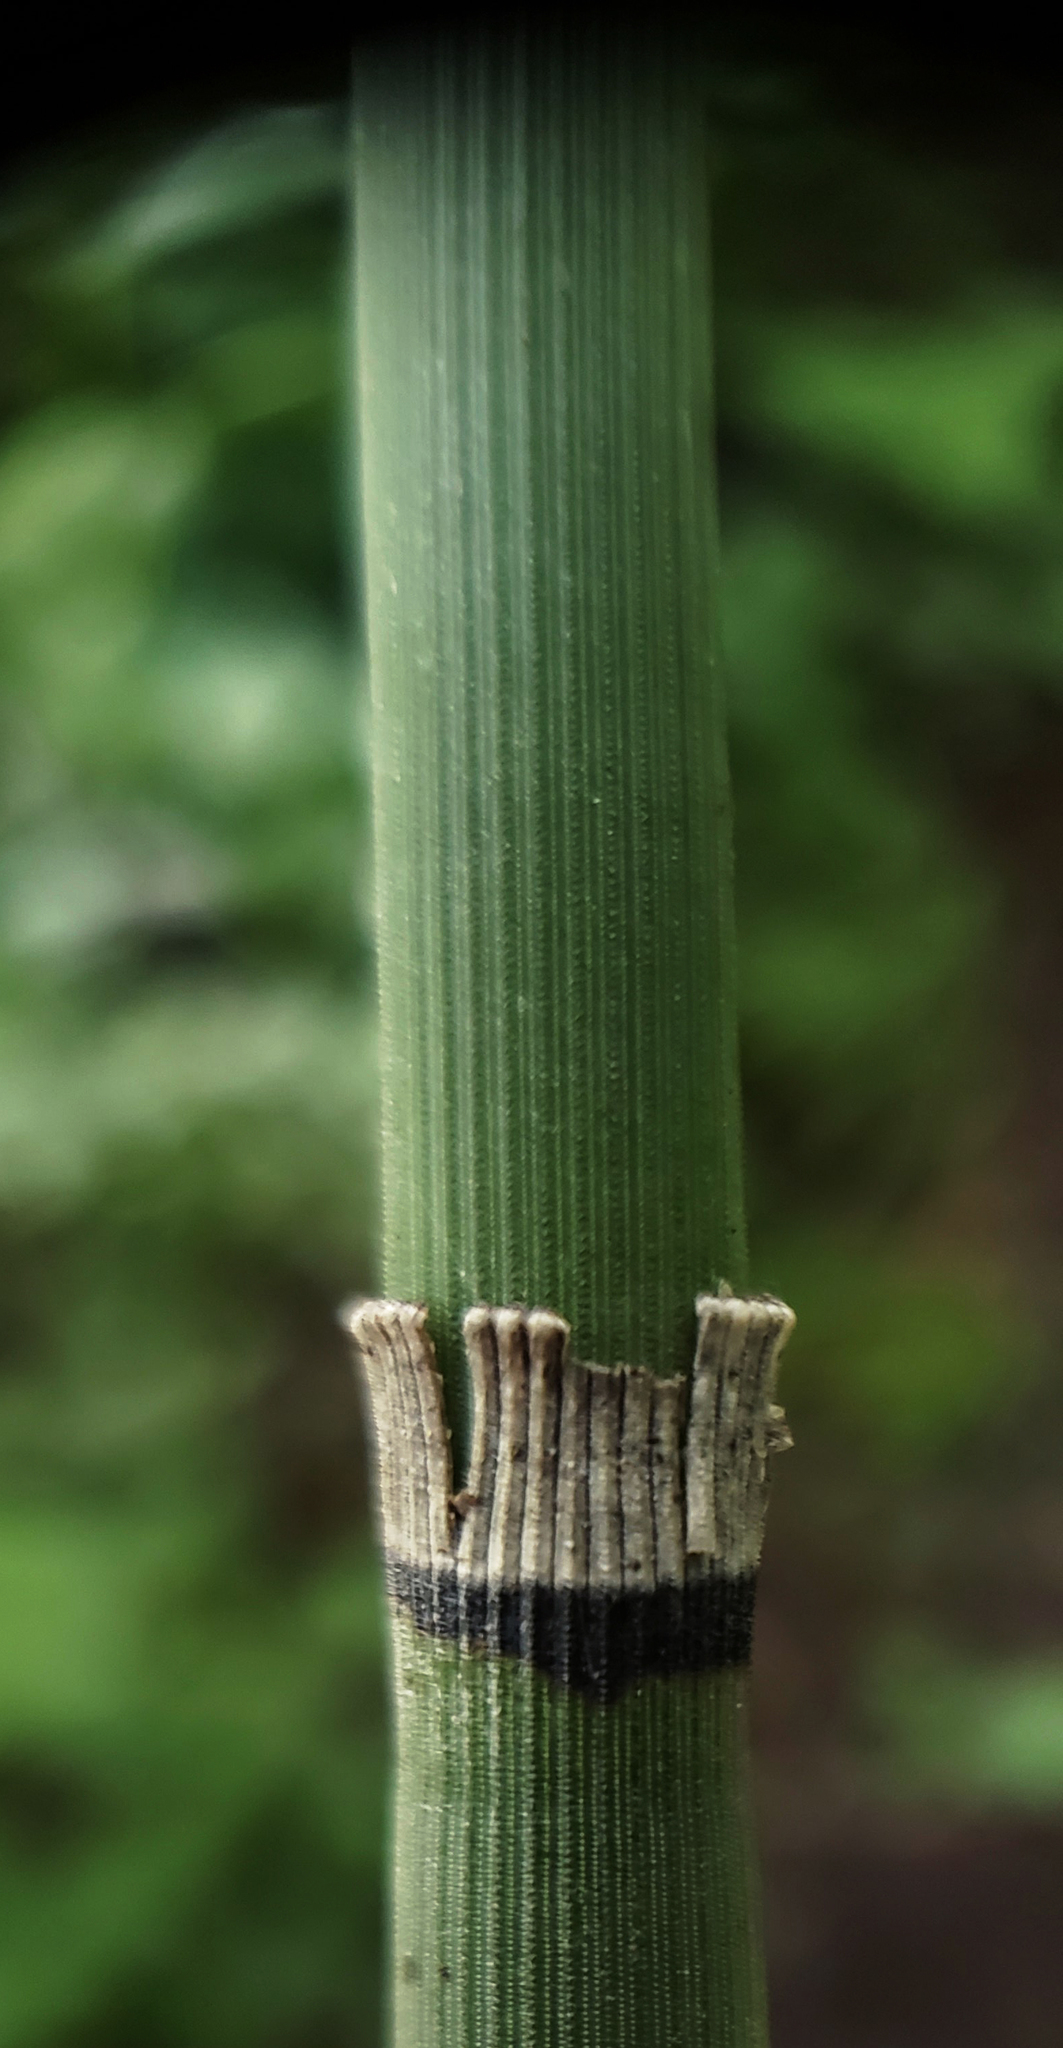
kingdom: Plantae
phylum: Tracheophyta
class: Polypodiopsida
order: Equisetales
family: Equisetaceae
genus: Equisetum
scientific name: Equisetum hyemale
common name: Rough horsetail
